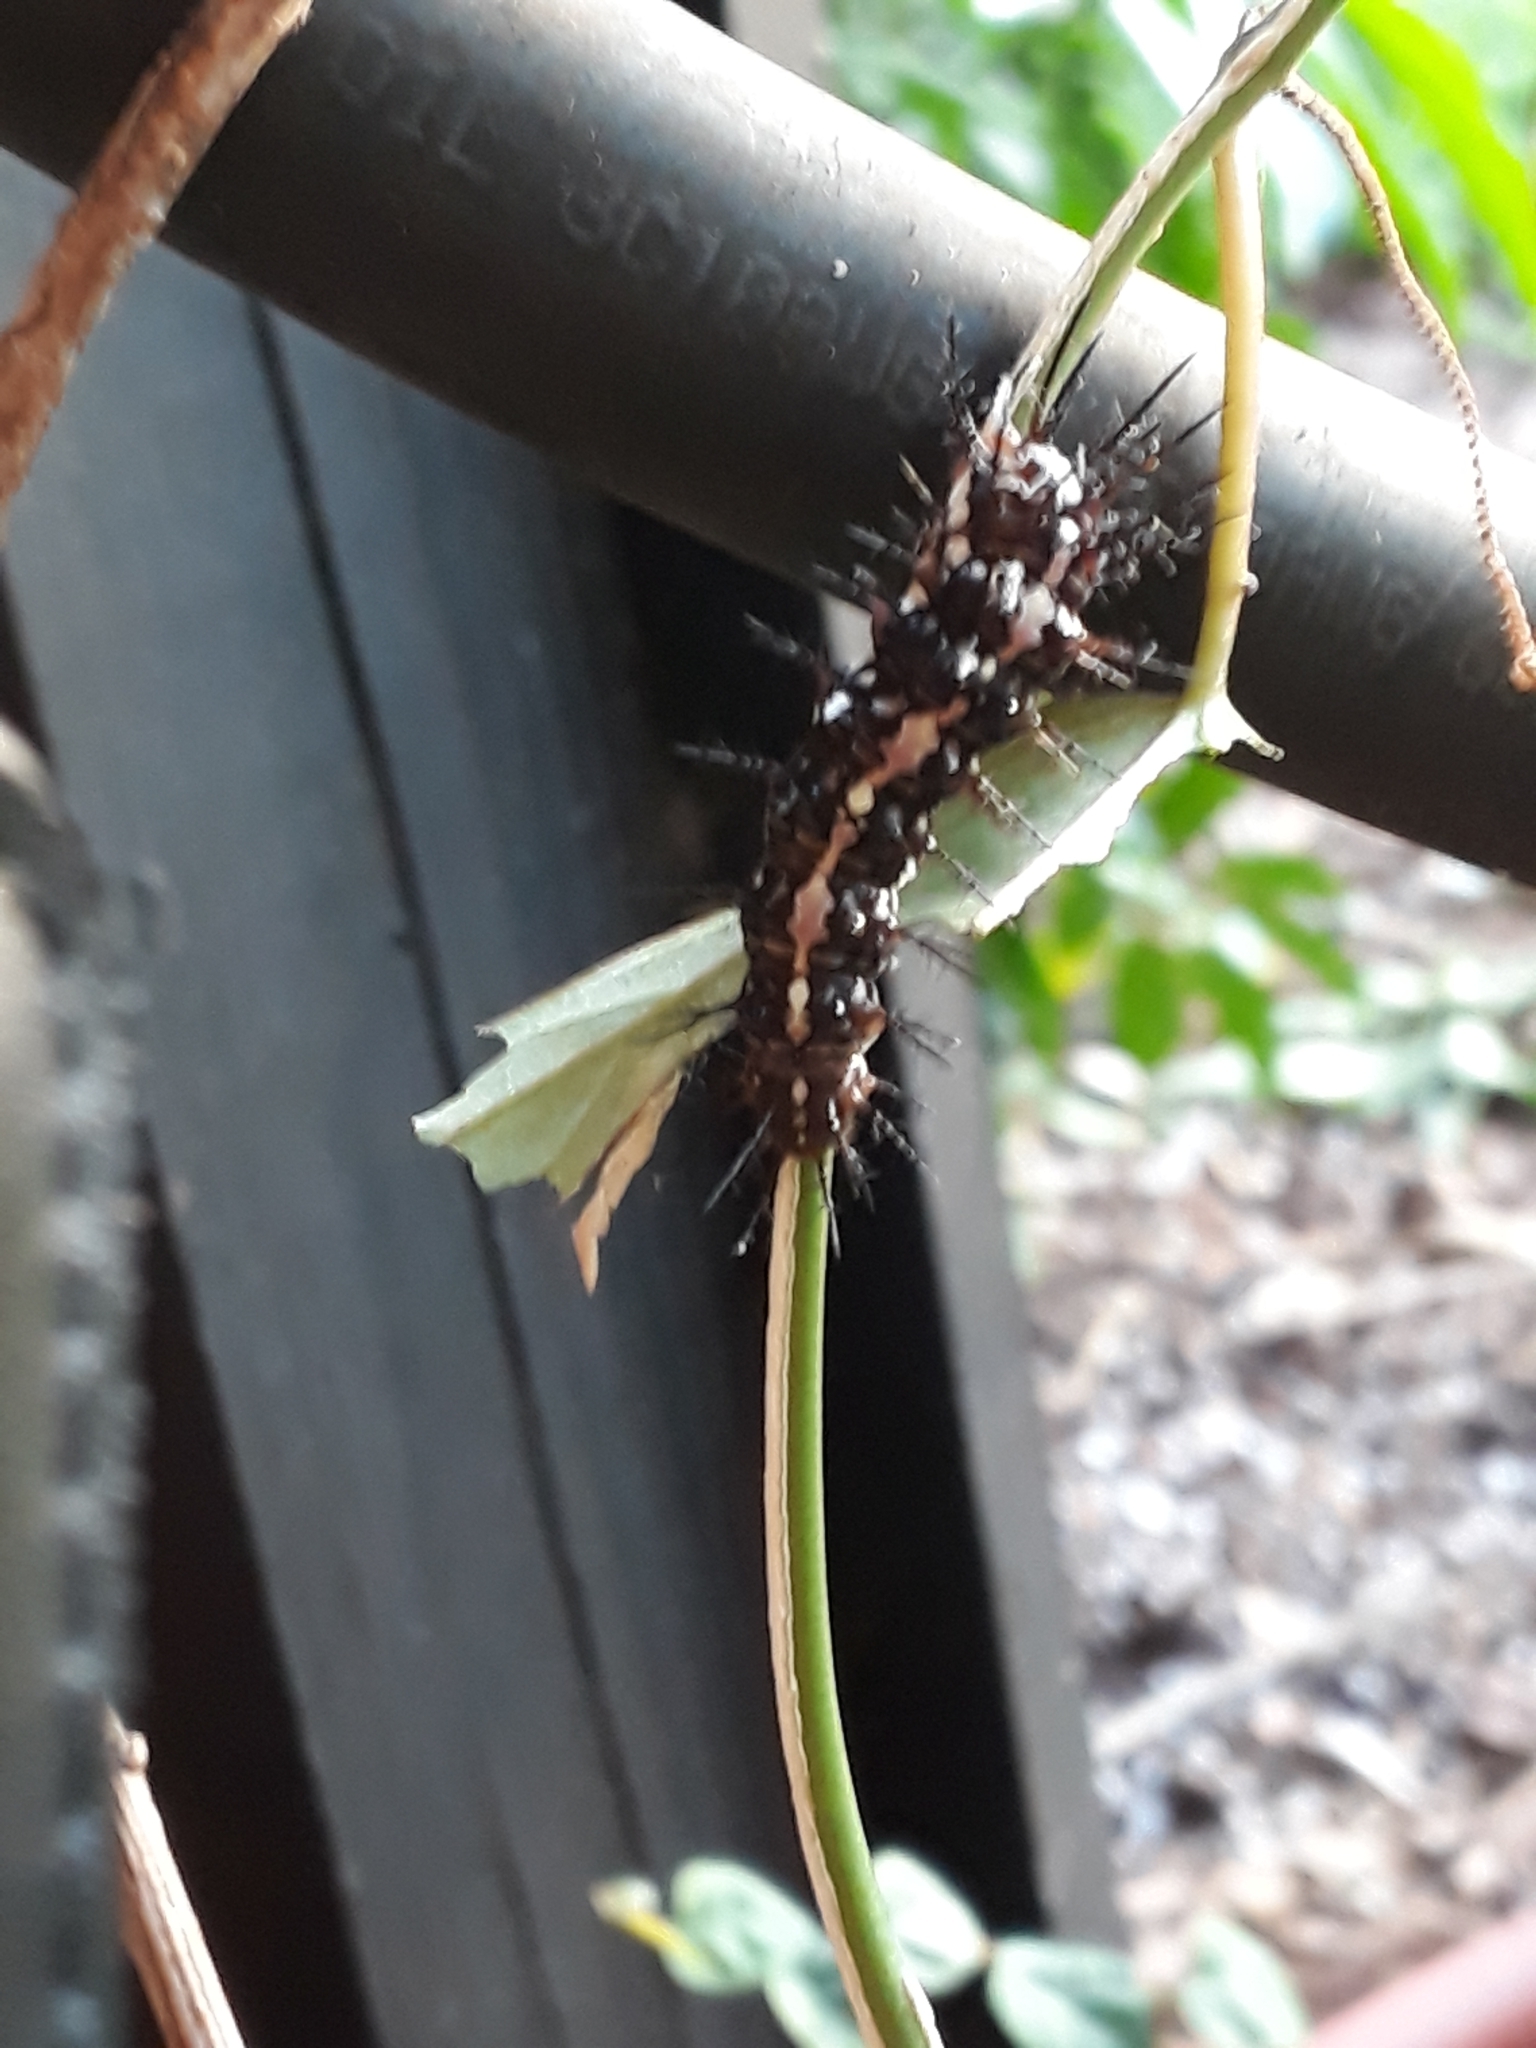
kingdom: Animalia
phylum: Arthropoda
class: Insecta
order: Lepidoptera
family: Nymphalidae
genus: Dryas
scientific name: Dryas iulia
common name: Flambeau
